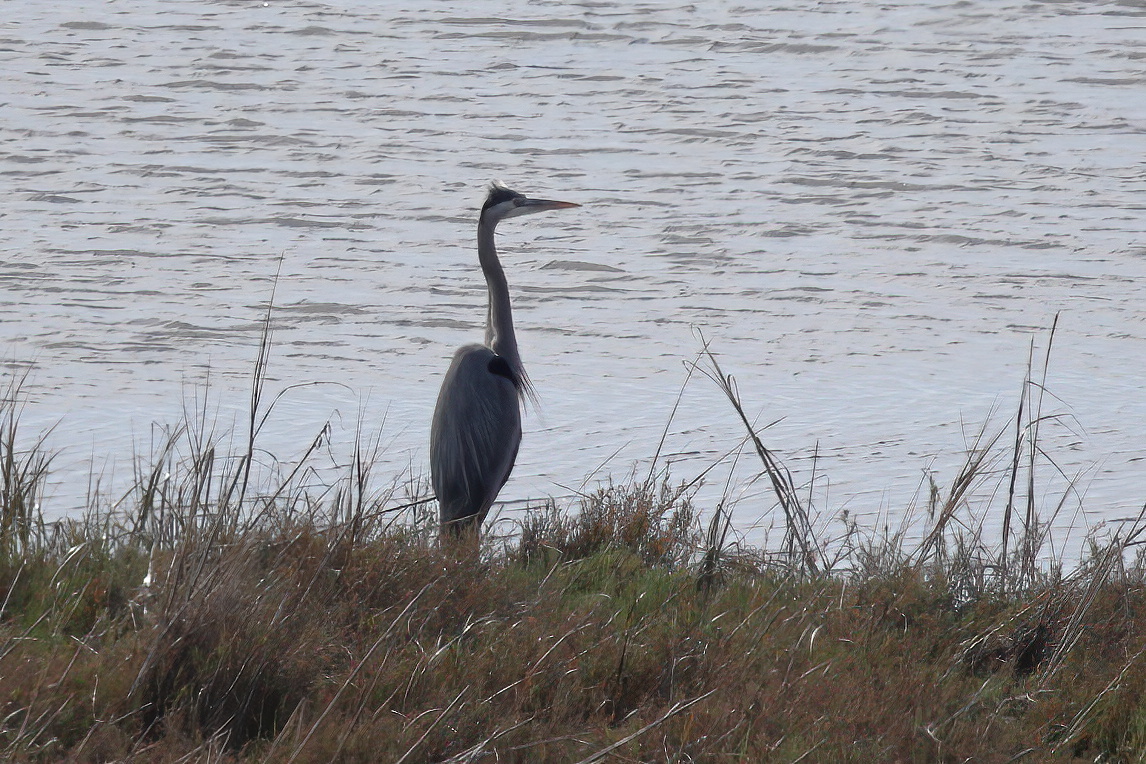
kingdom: Animalia
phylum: Chordata
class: Aves
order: Pelecaniformes
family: Ardeidae
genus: Ardea
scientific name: Ardea herodias
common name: Great blue heron
